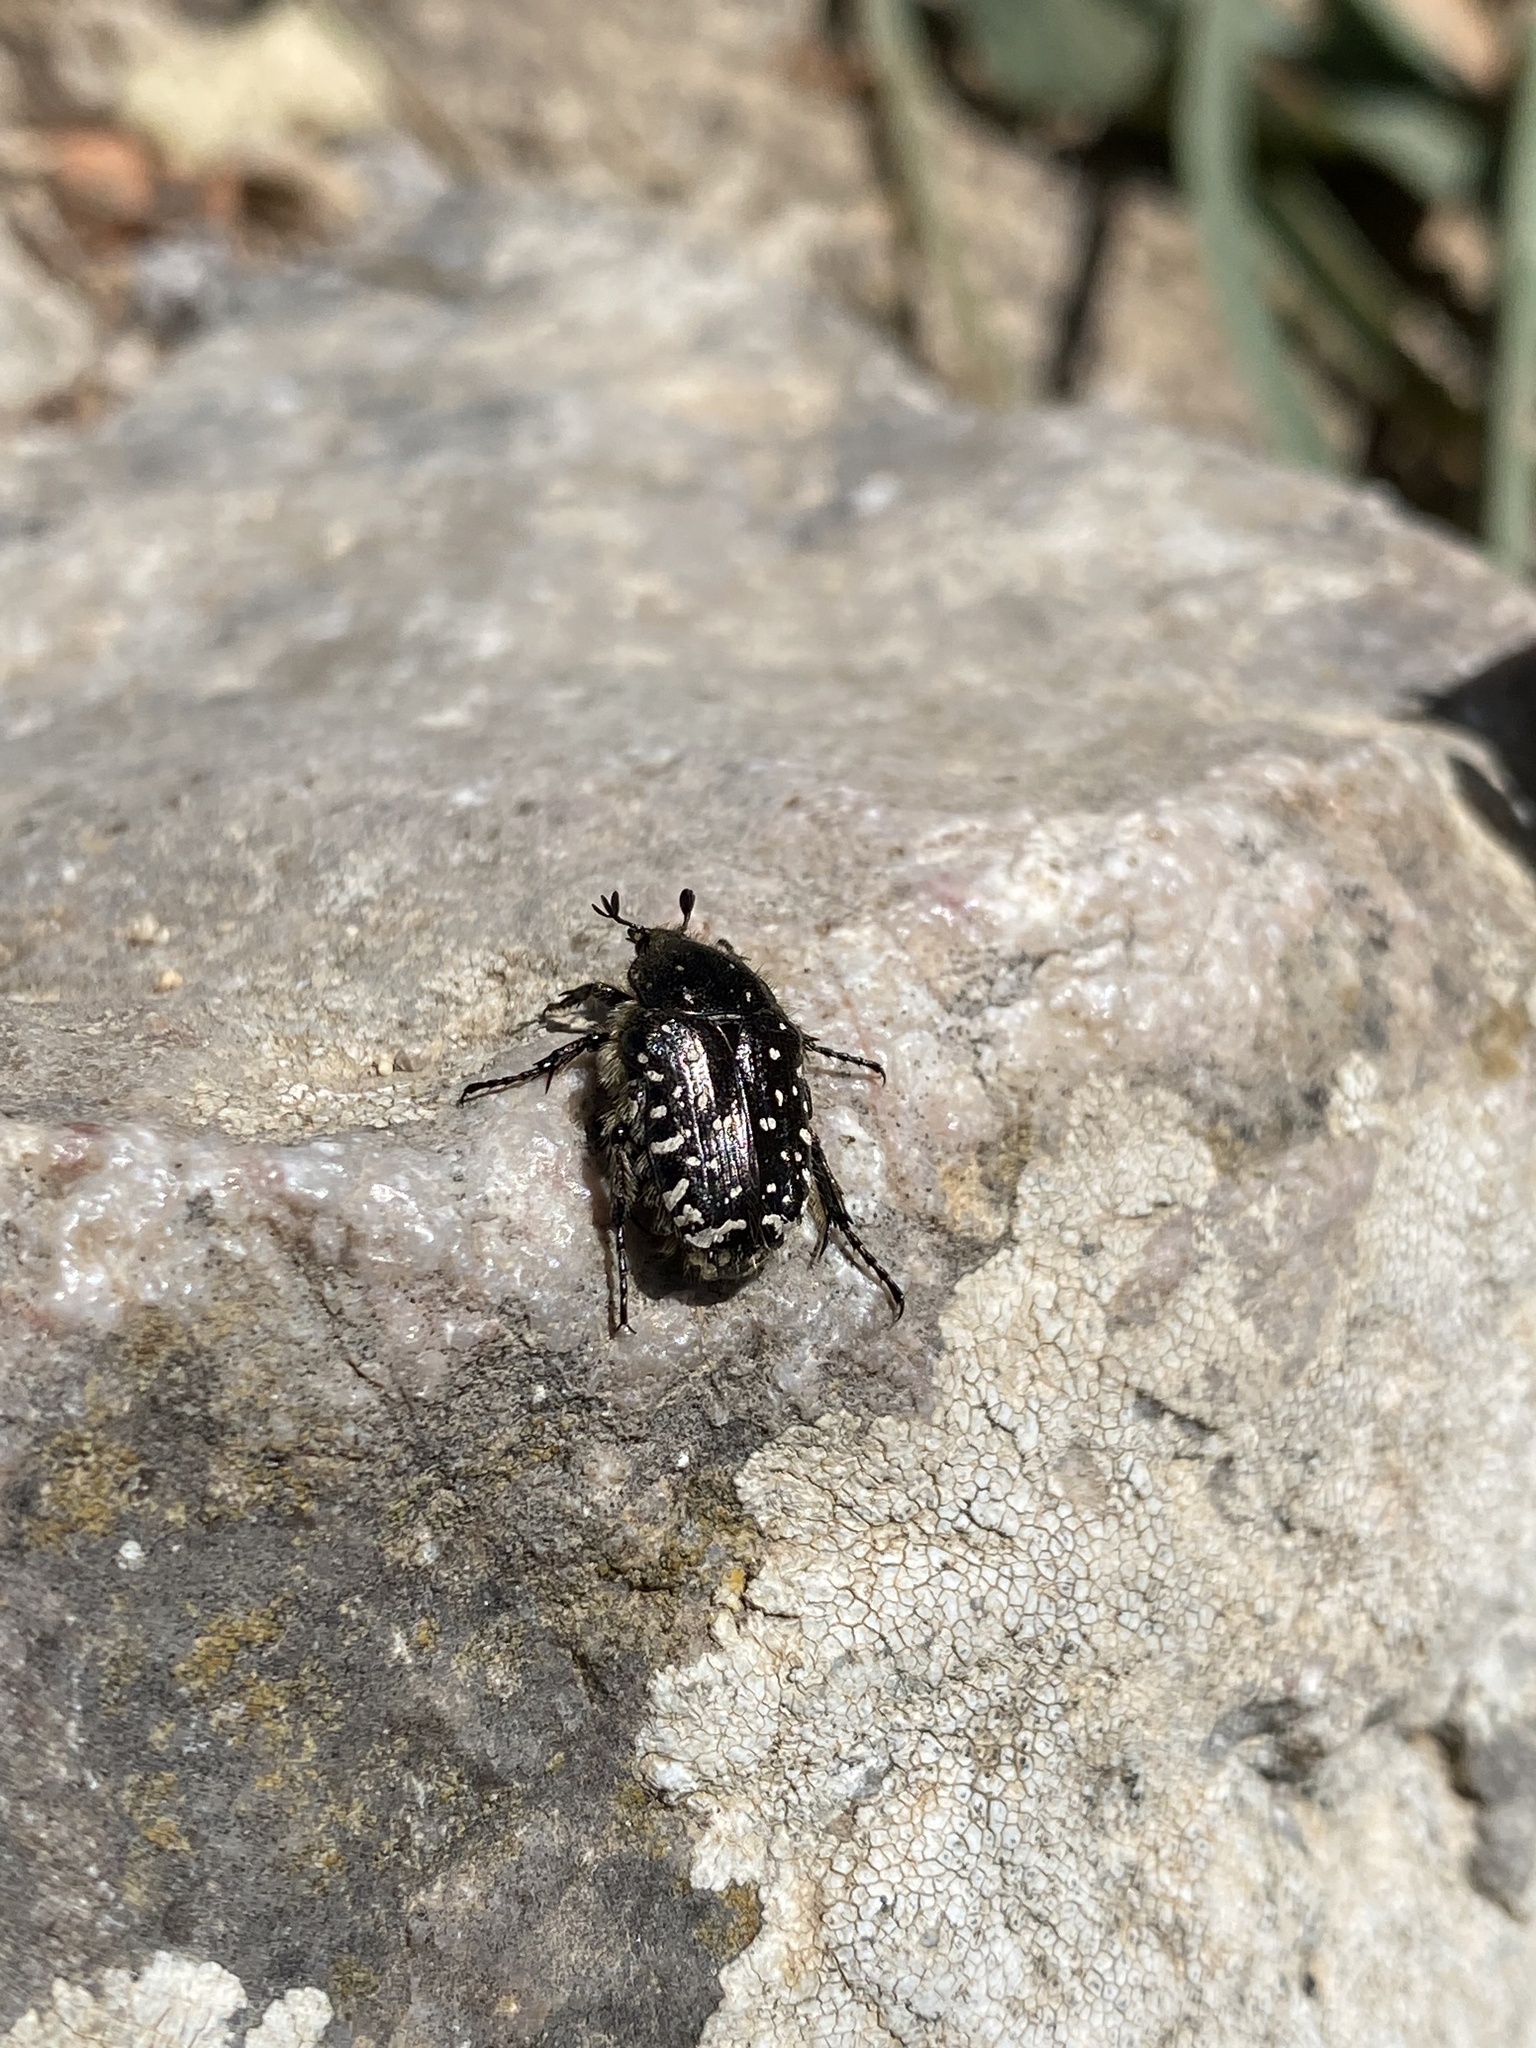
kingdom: Animalia
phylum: Arthropoda
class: Insecta
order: Coleoptera
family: Scarabaeidae
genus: Oxythyrea
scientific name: Oxythyrea funesta
